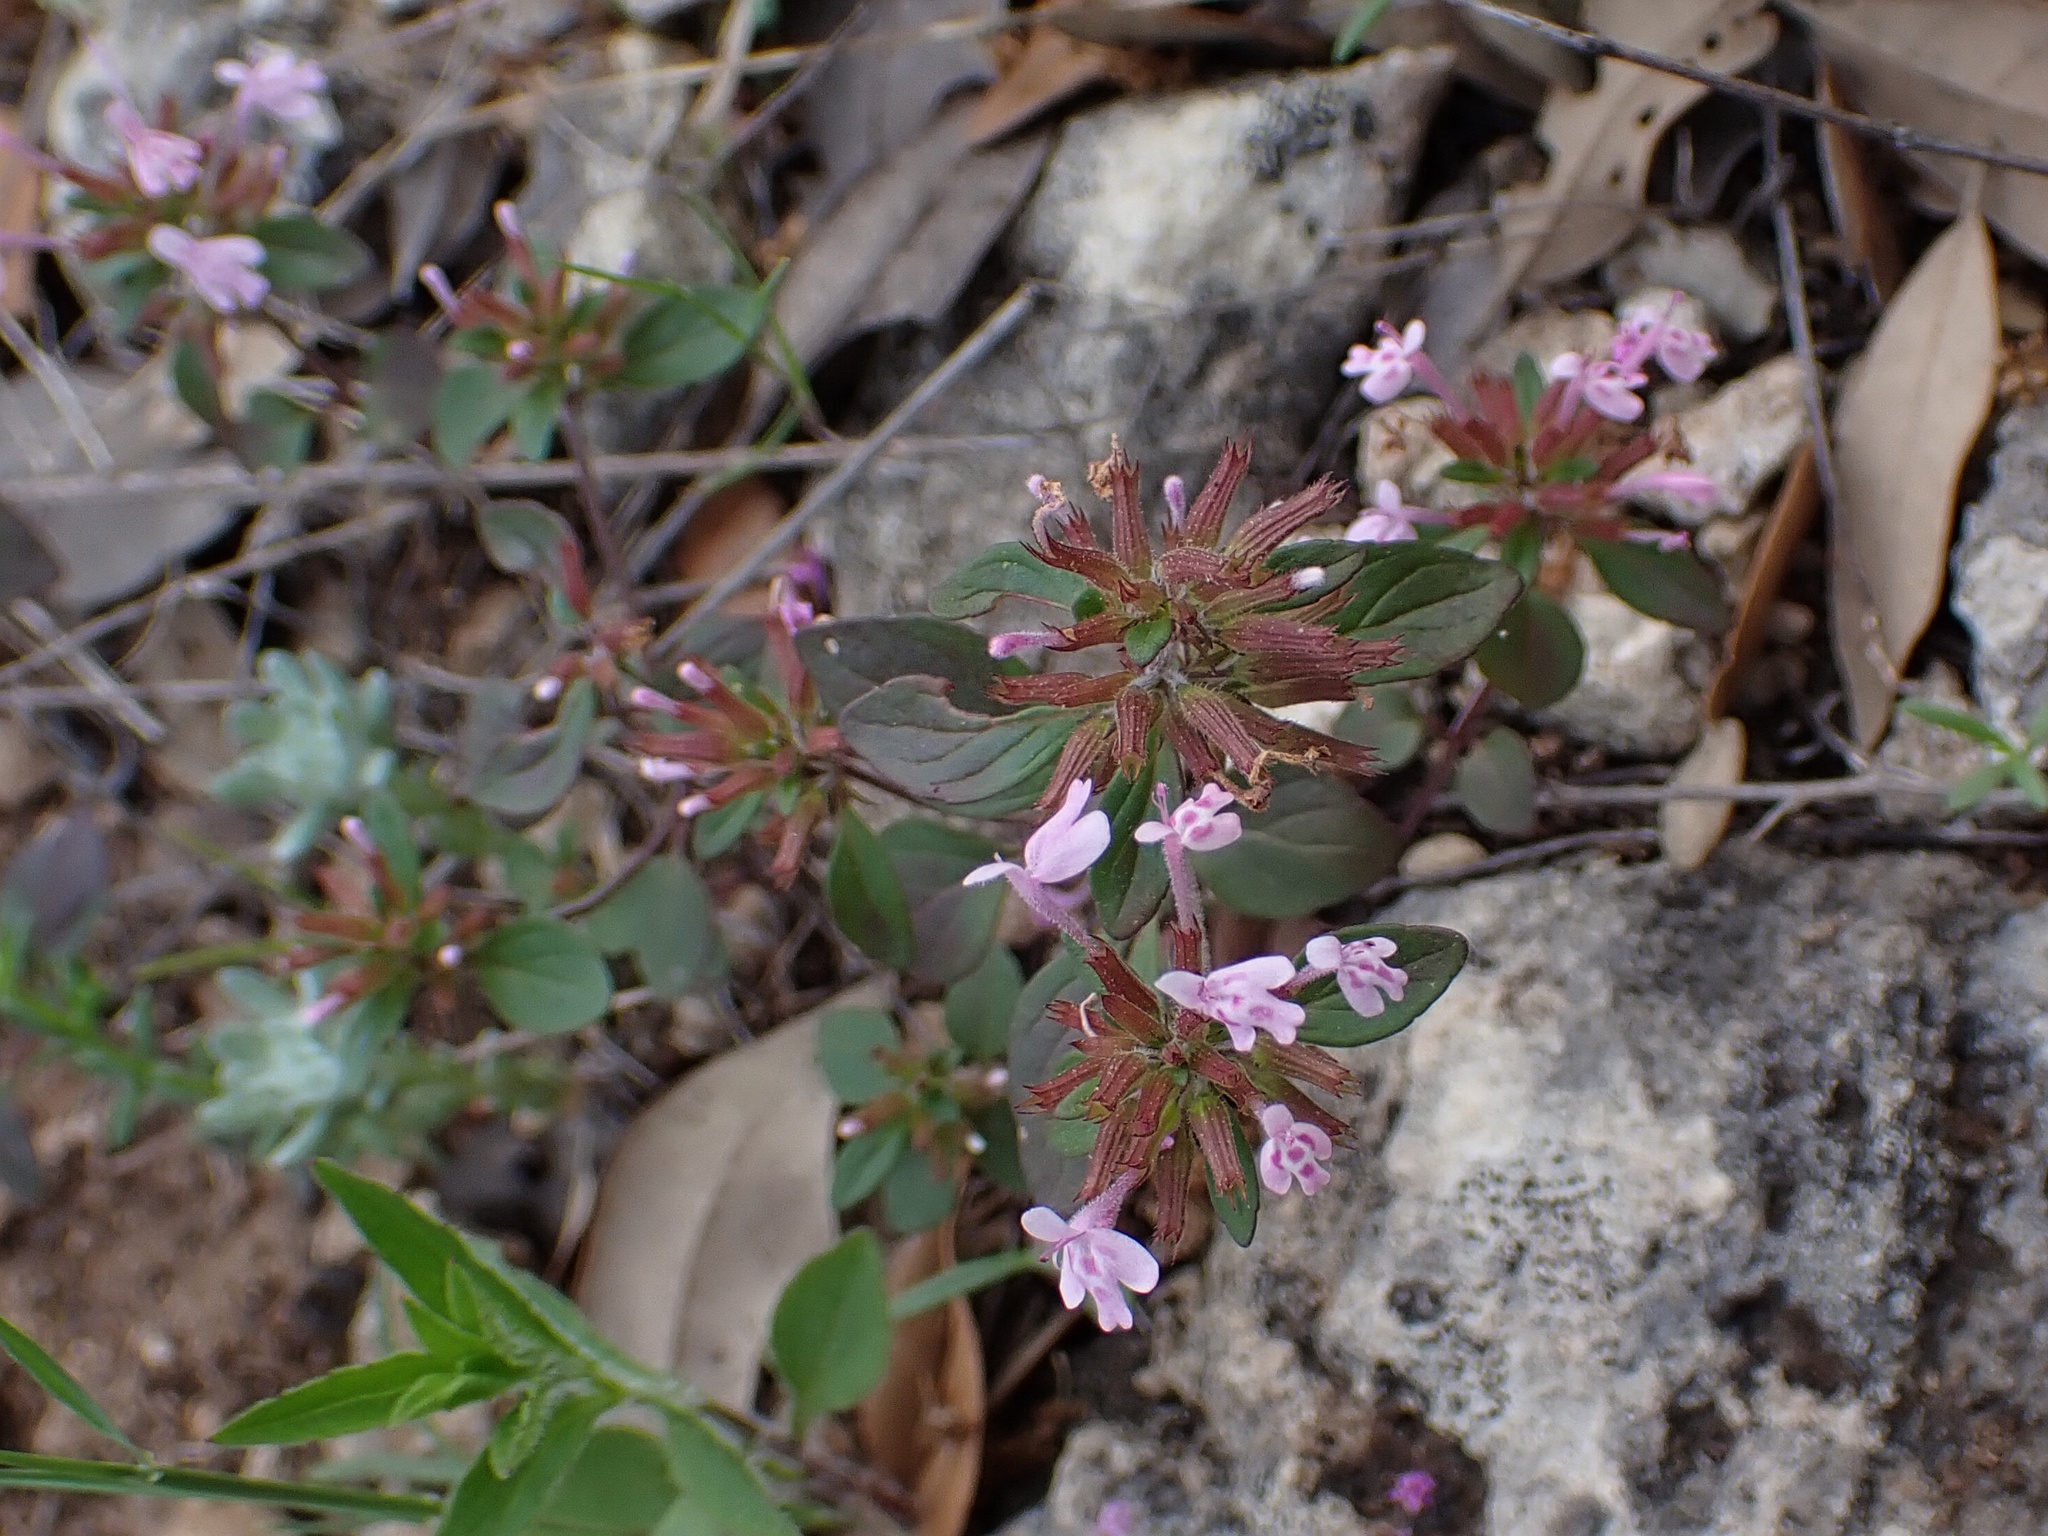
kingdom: Plantae
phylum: Tracheophyta
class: Magnoliopsida
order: Lamiales
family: Lamiaceae
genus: Hedeoma
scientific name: Hedeoma acinoides
